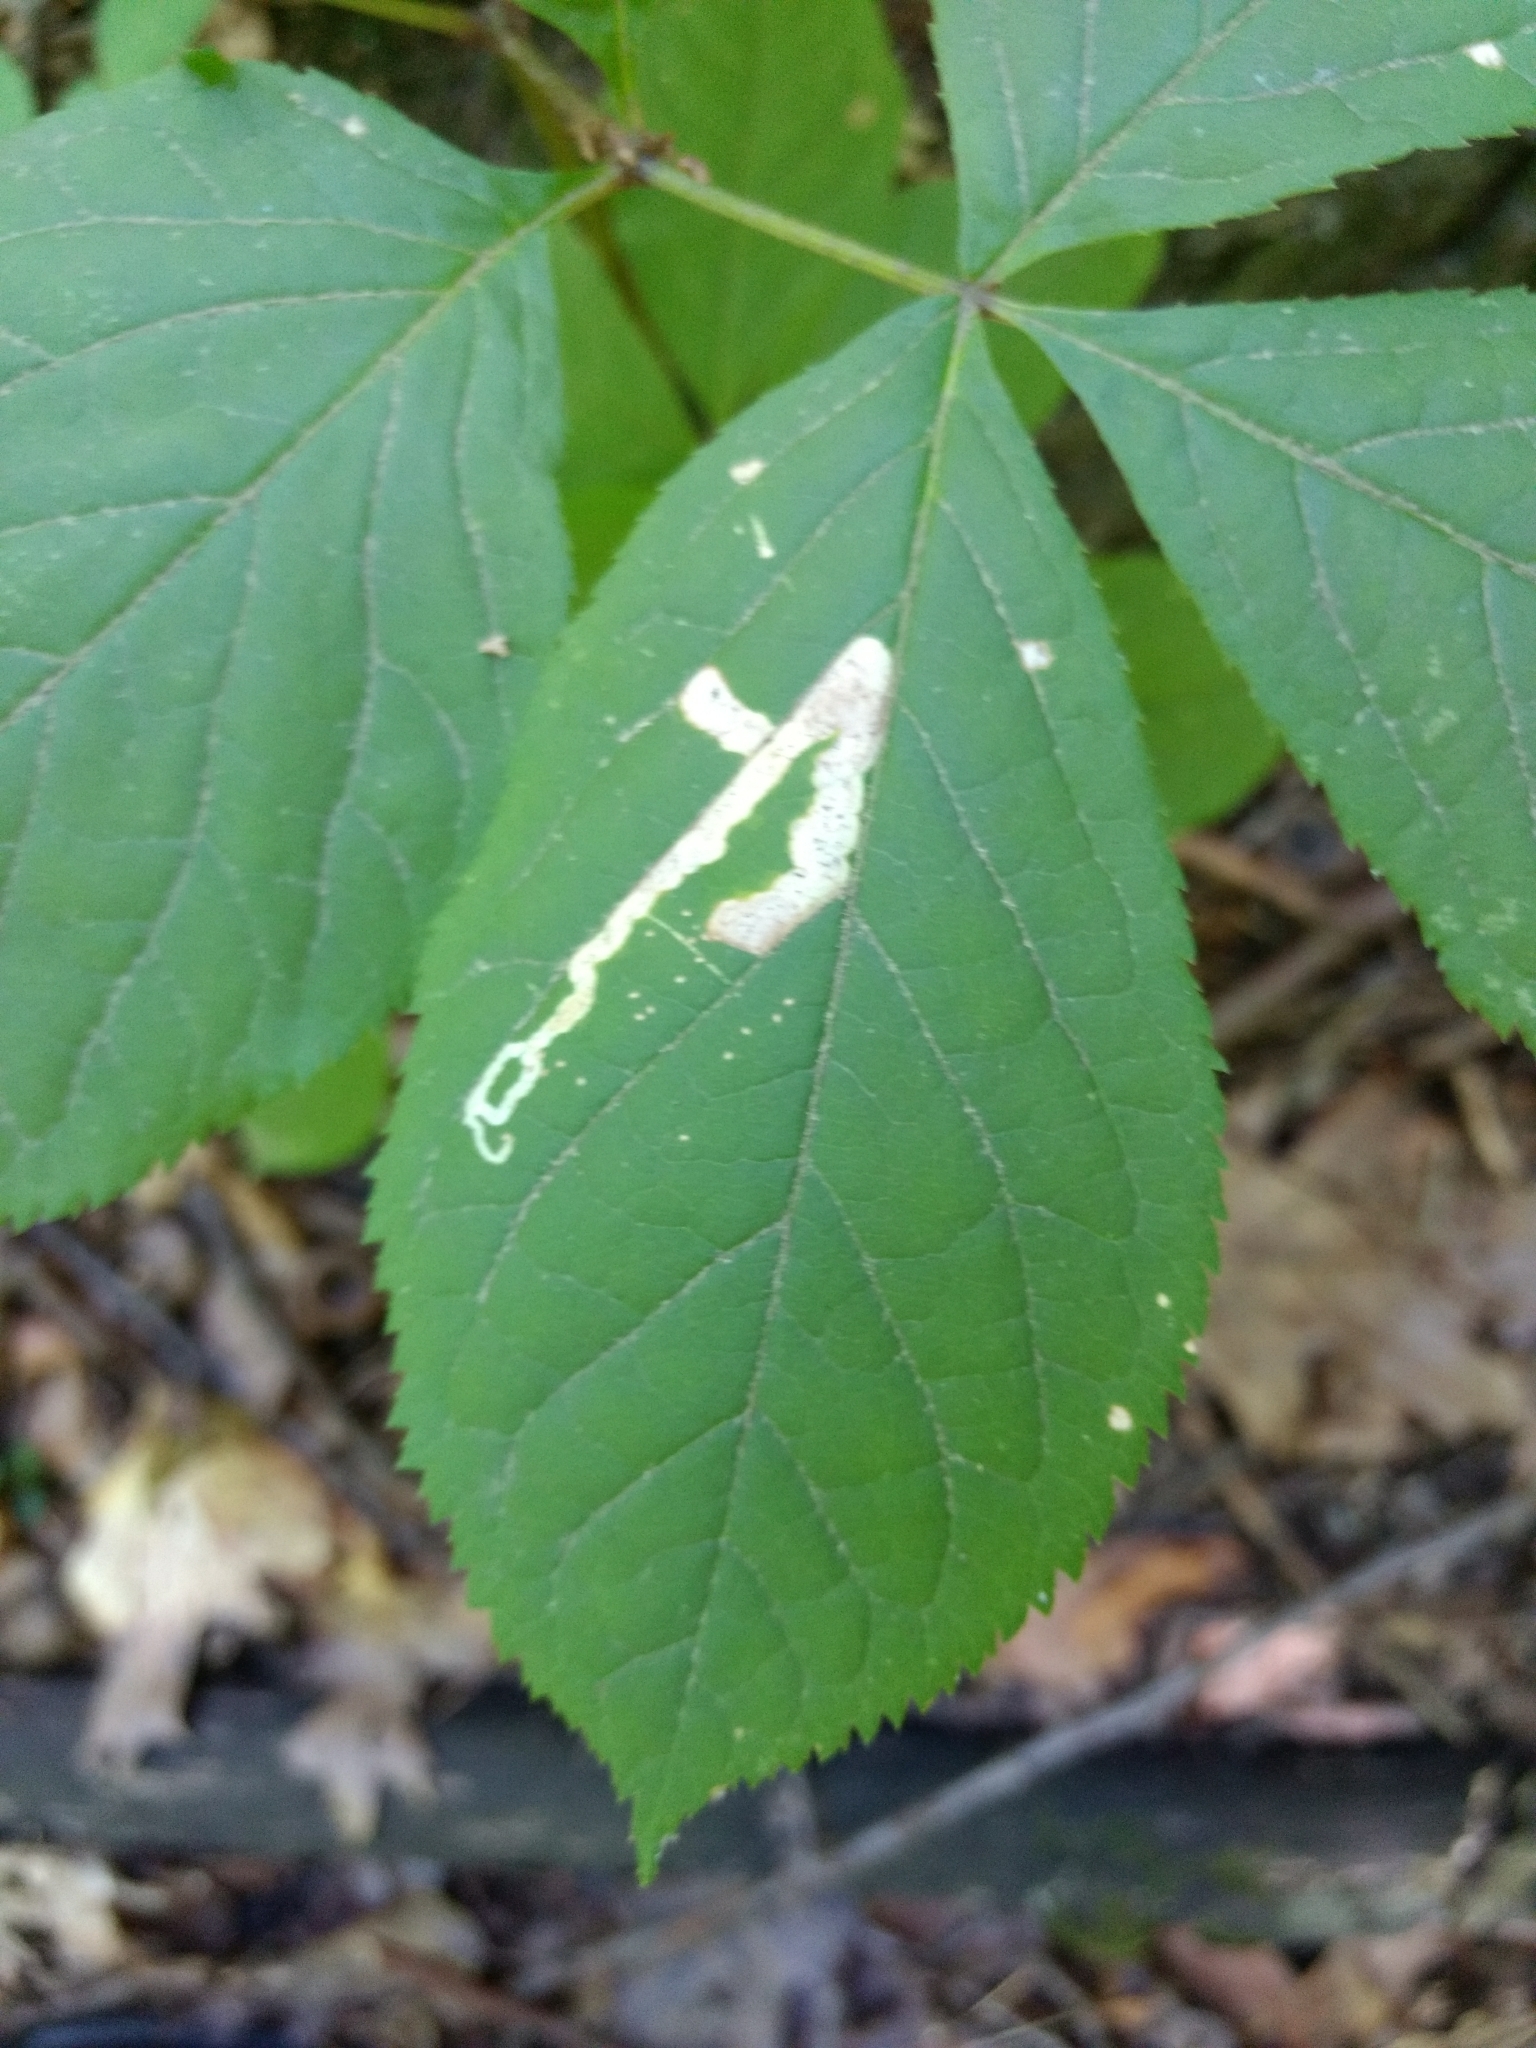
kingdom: Animalia
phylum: Arthropoda
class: Insecta
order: Diptera
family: Agromyzidae
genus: Phytomyza
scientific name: Phytomyza aralivora
